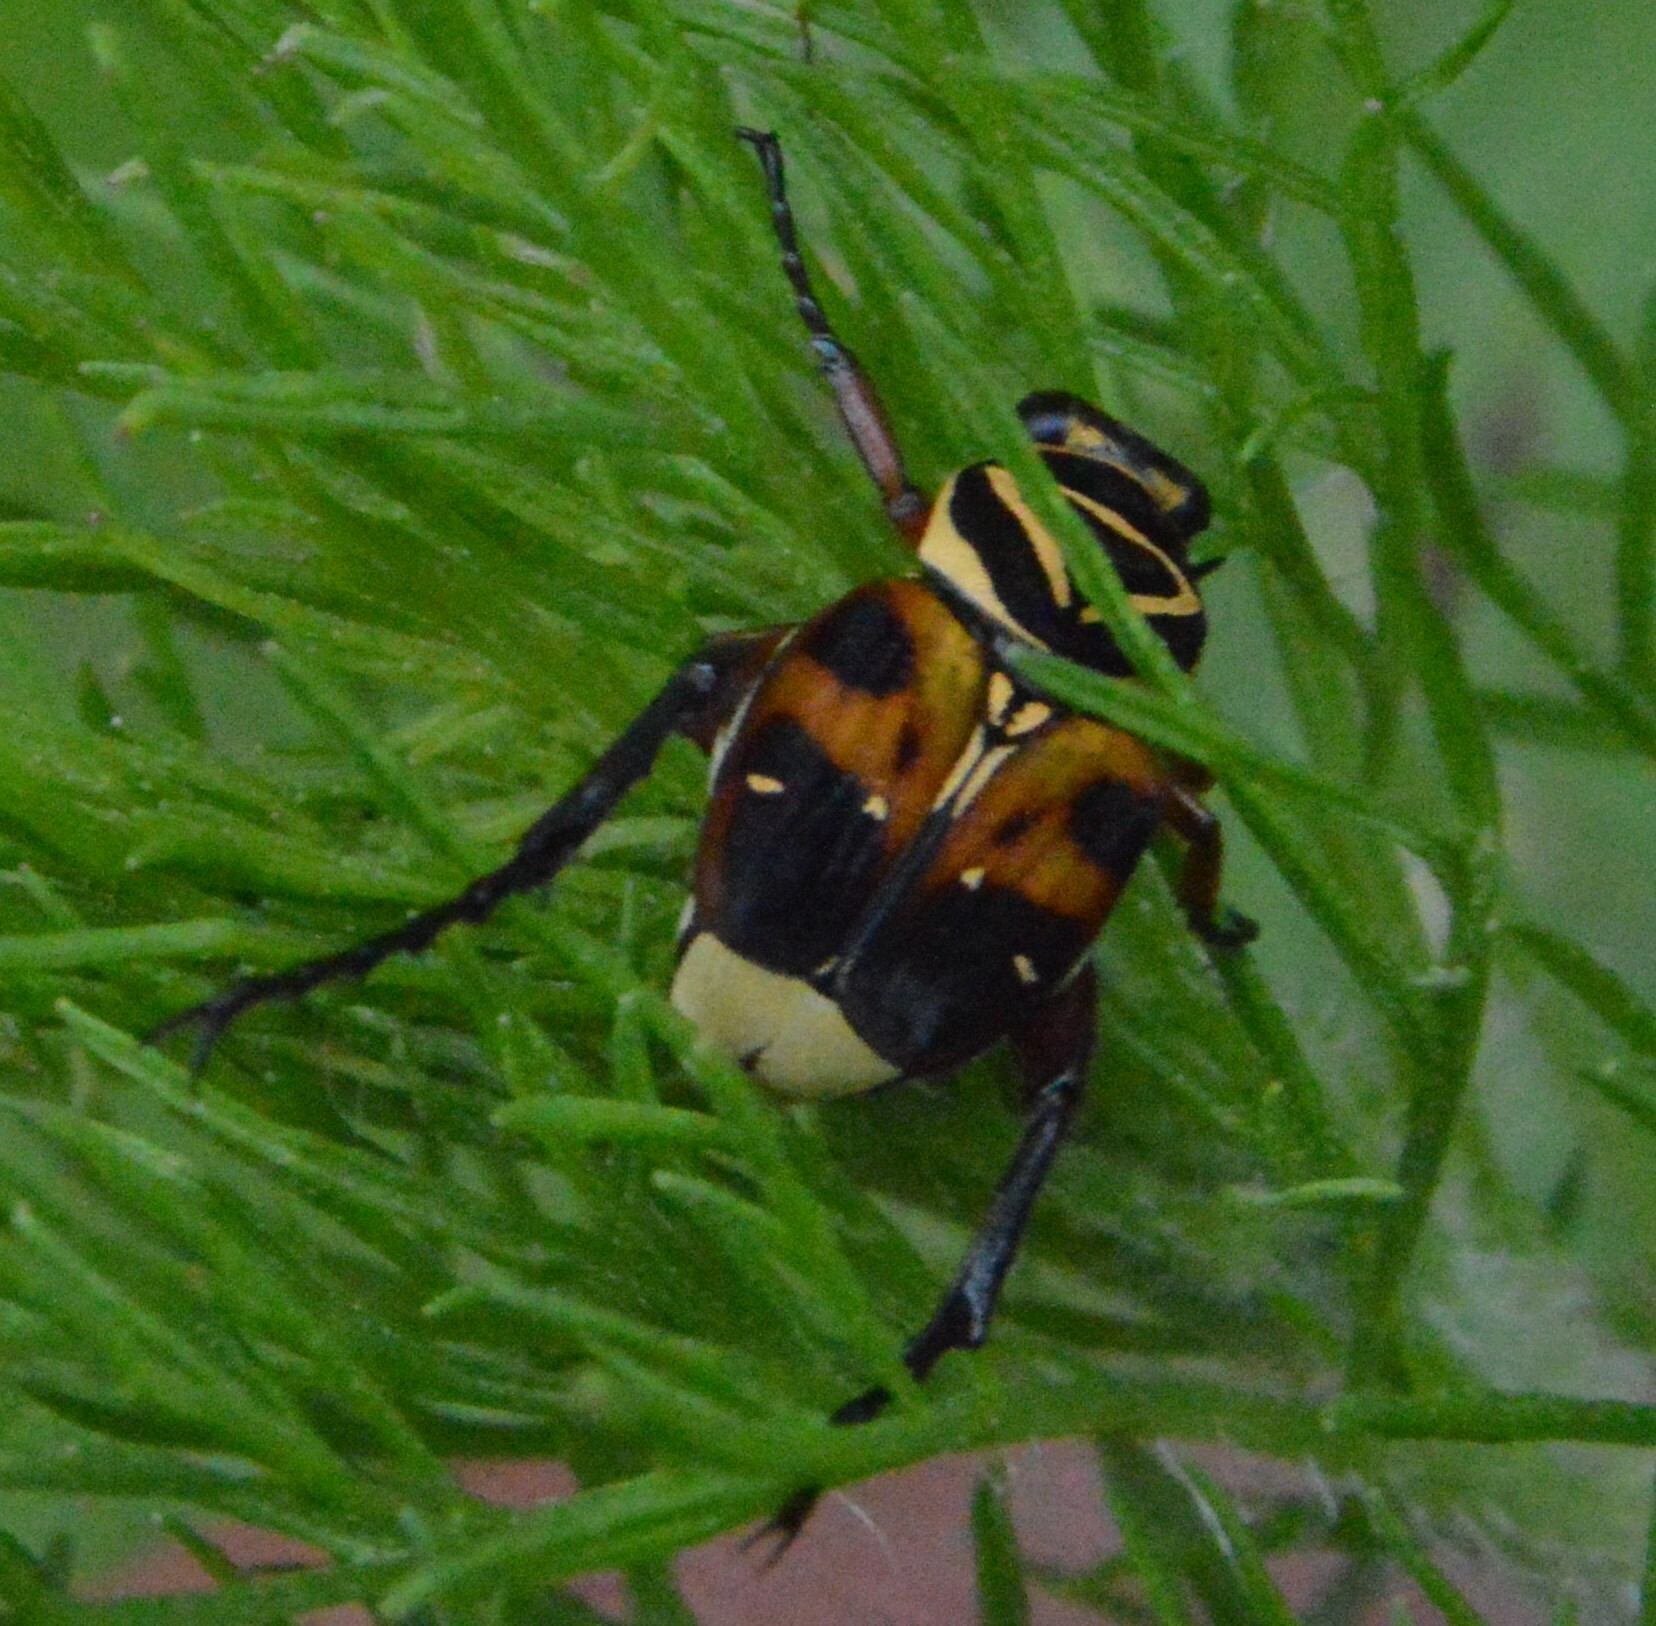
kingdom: Animalia
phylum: Arthropoda
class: Insecta
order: Coleoptera
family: Scarabaeidae
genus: Trigonopeltastes
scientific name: Trigonopeltastes delta
